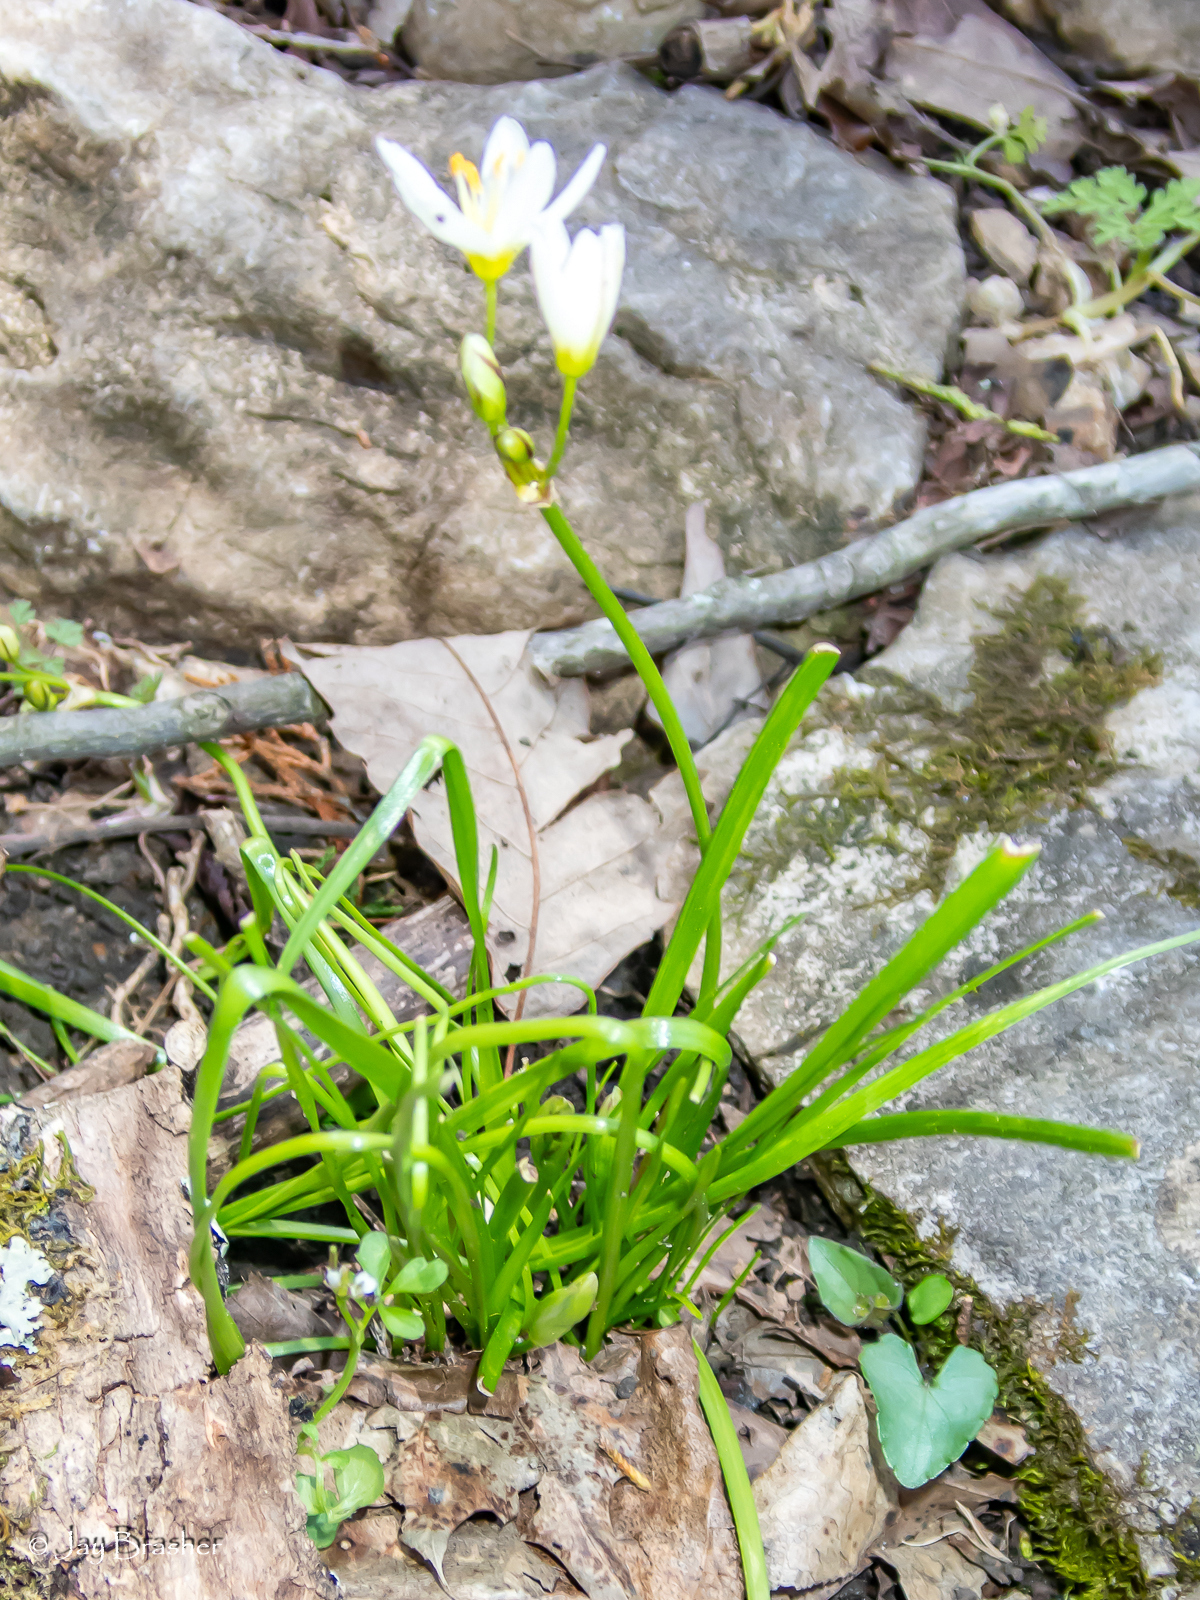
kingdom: Plantae
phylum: Tracheophyta
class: Liliopsida
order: Asparagales
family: Amaryllidaceae
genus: Nothoscordum
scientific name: Nothoscordum bivalve
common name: Crow-poison
